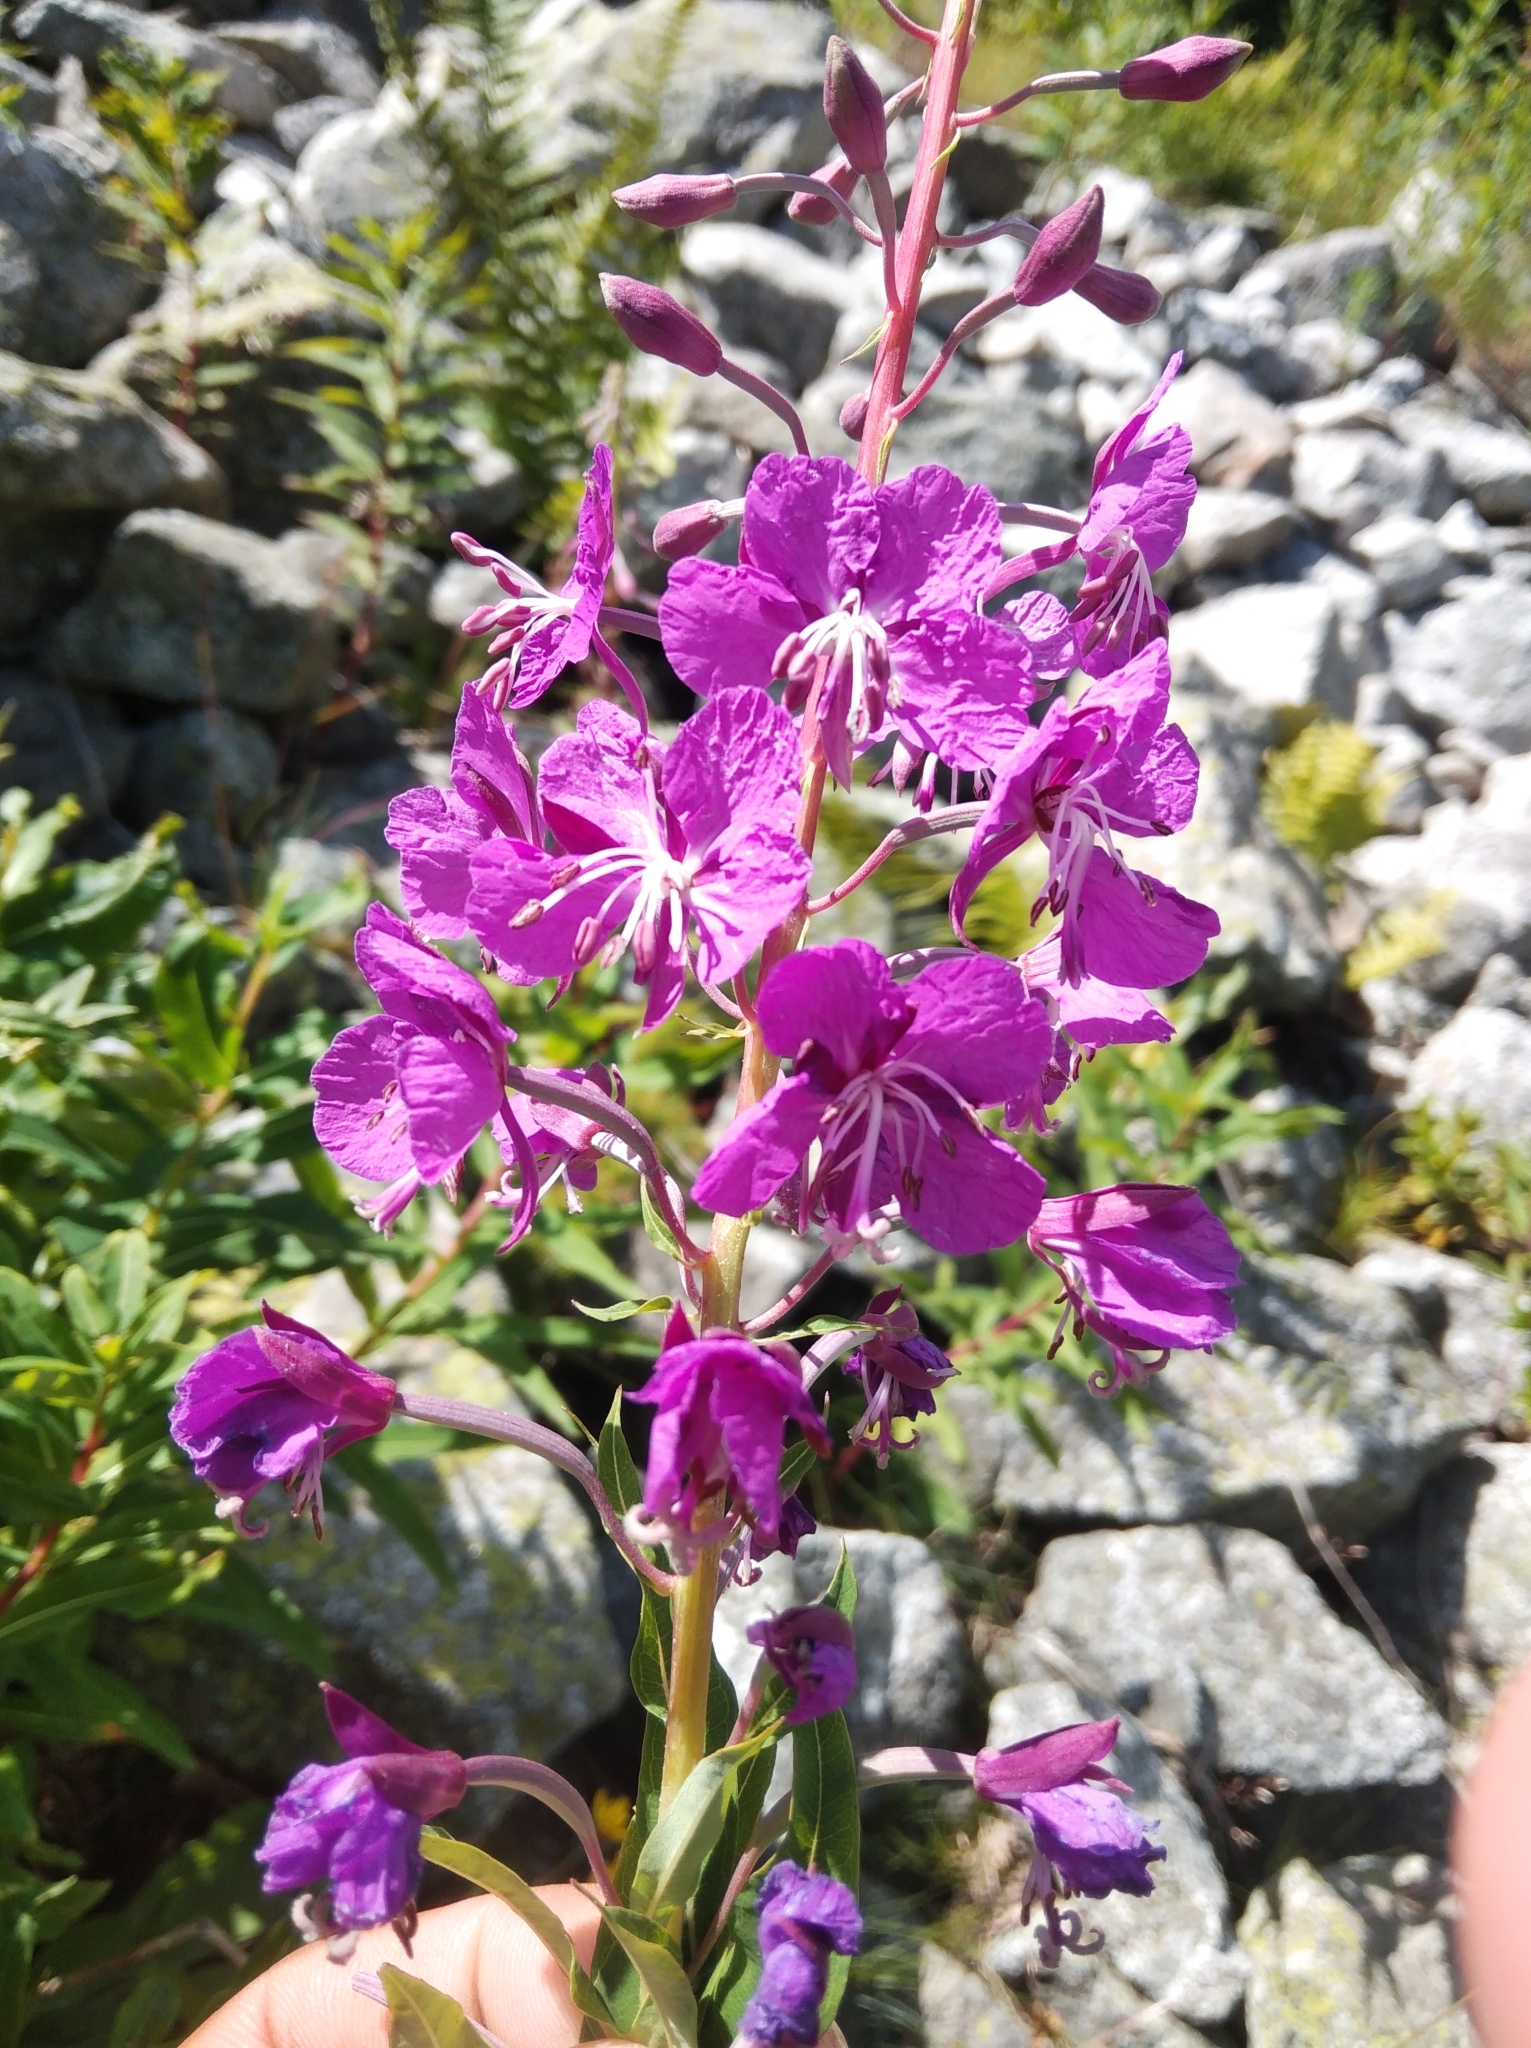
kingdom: Plantae
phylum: Tracheophyta
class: Magnoliopsida
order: Myrtales
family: Onagraceae
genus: Chamaenerion
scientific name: Chamaenerion angustifolium
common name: Fireweed
